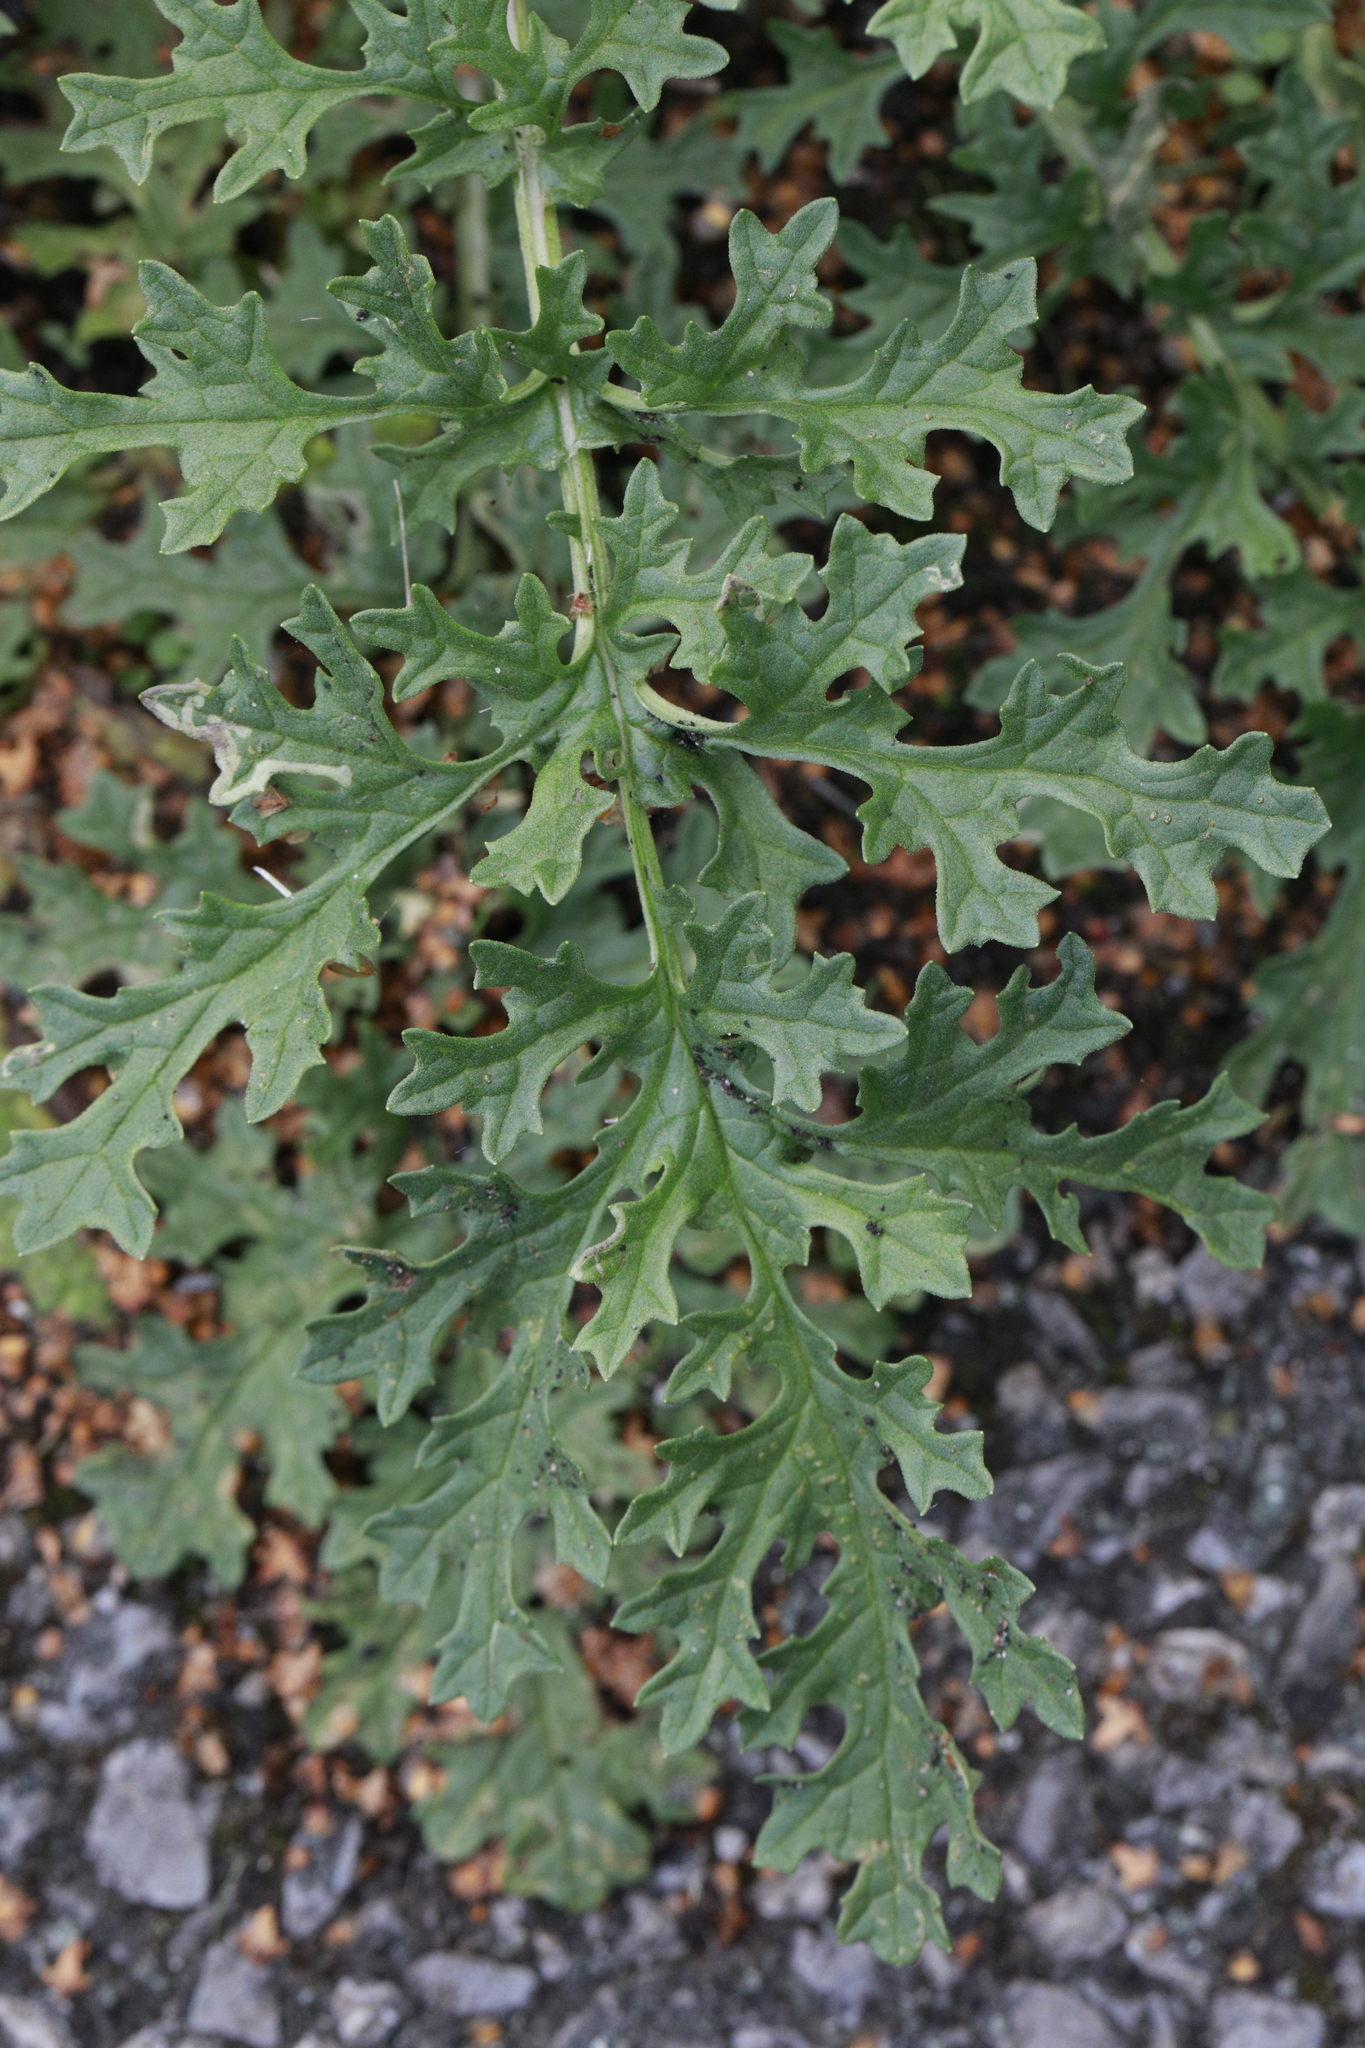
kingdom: Plantae
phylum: Tracheophyta
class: Magnoliopsida
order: Asterales
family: Asteraceae
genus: Jacobaea
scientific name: Jacobaea vulgaris
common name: Stinking willie
